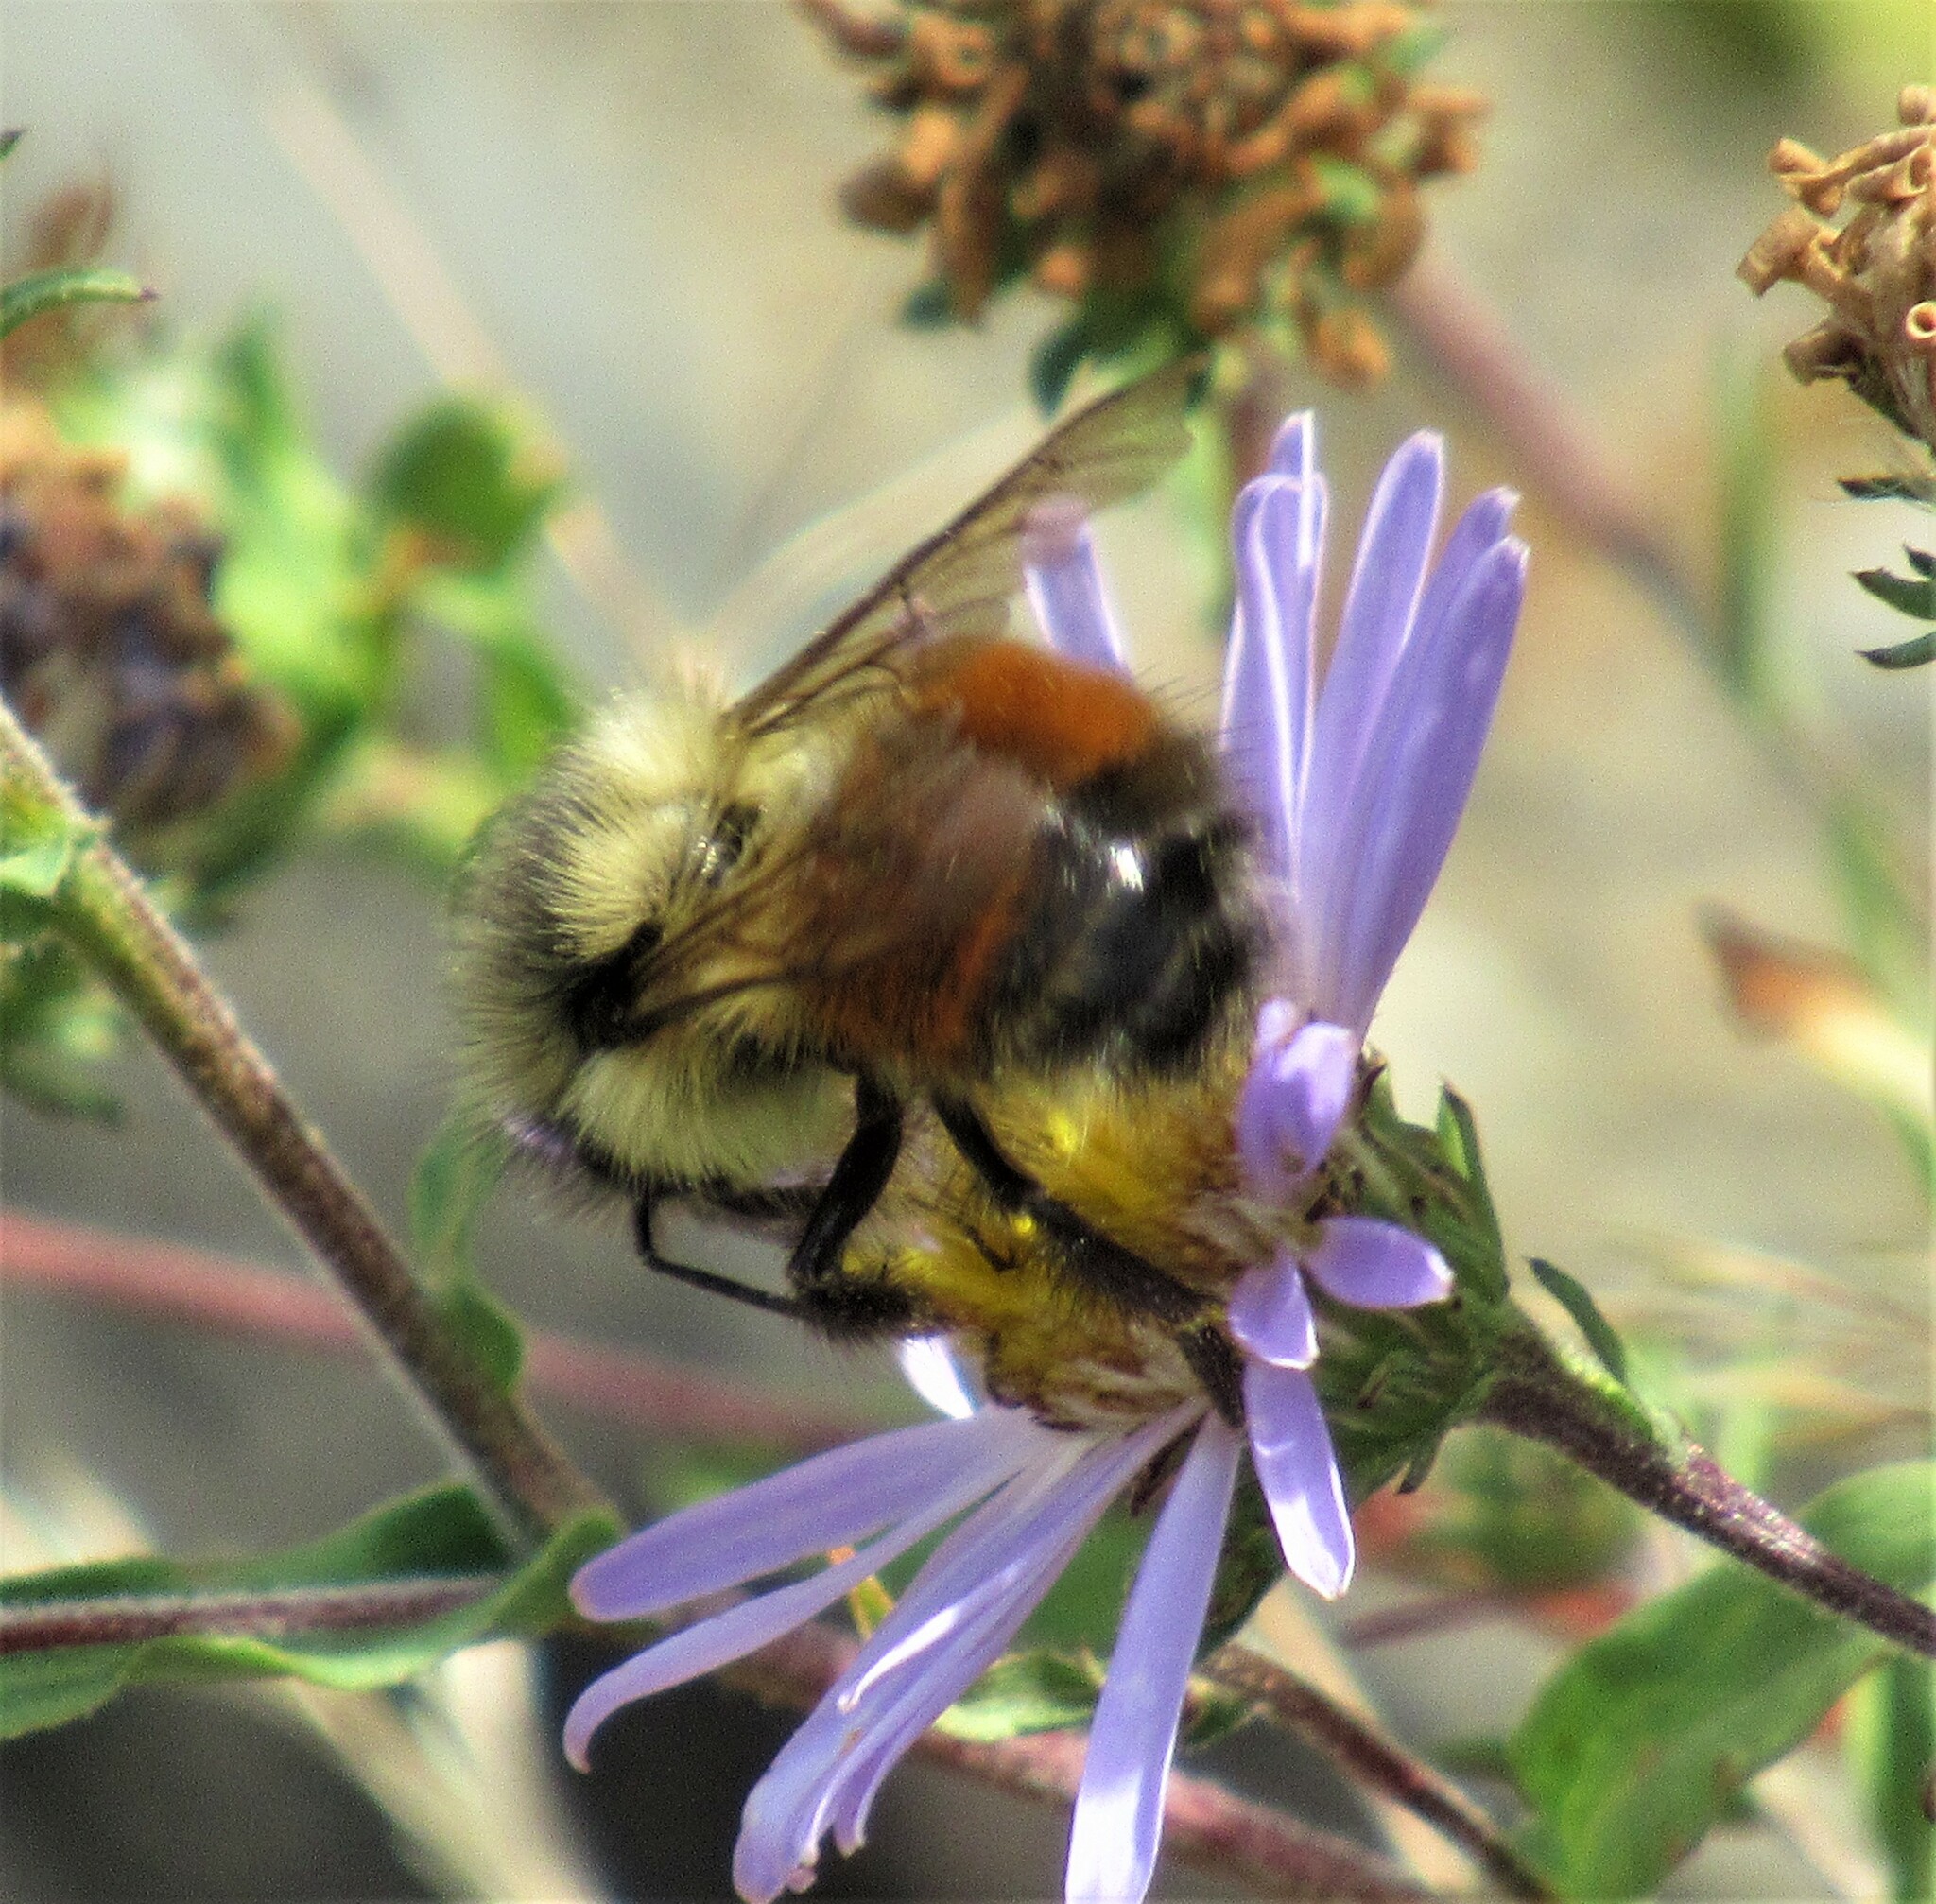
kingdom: Animalia
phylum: Arthropoda
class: Insecta
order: Hymenoptera
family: Apidae
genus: Bombus
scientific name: Bombus melanopygus
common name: Black tail bumble bee
